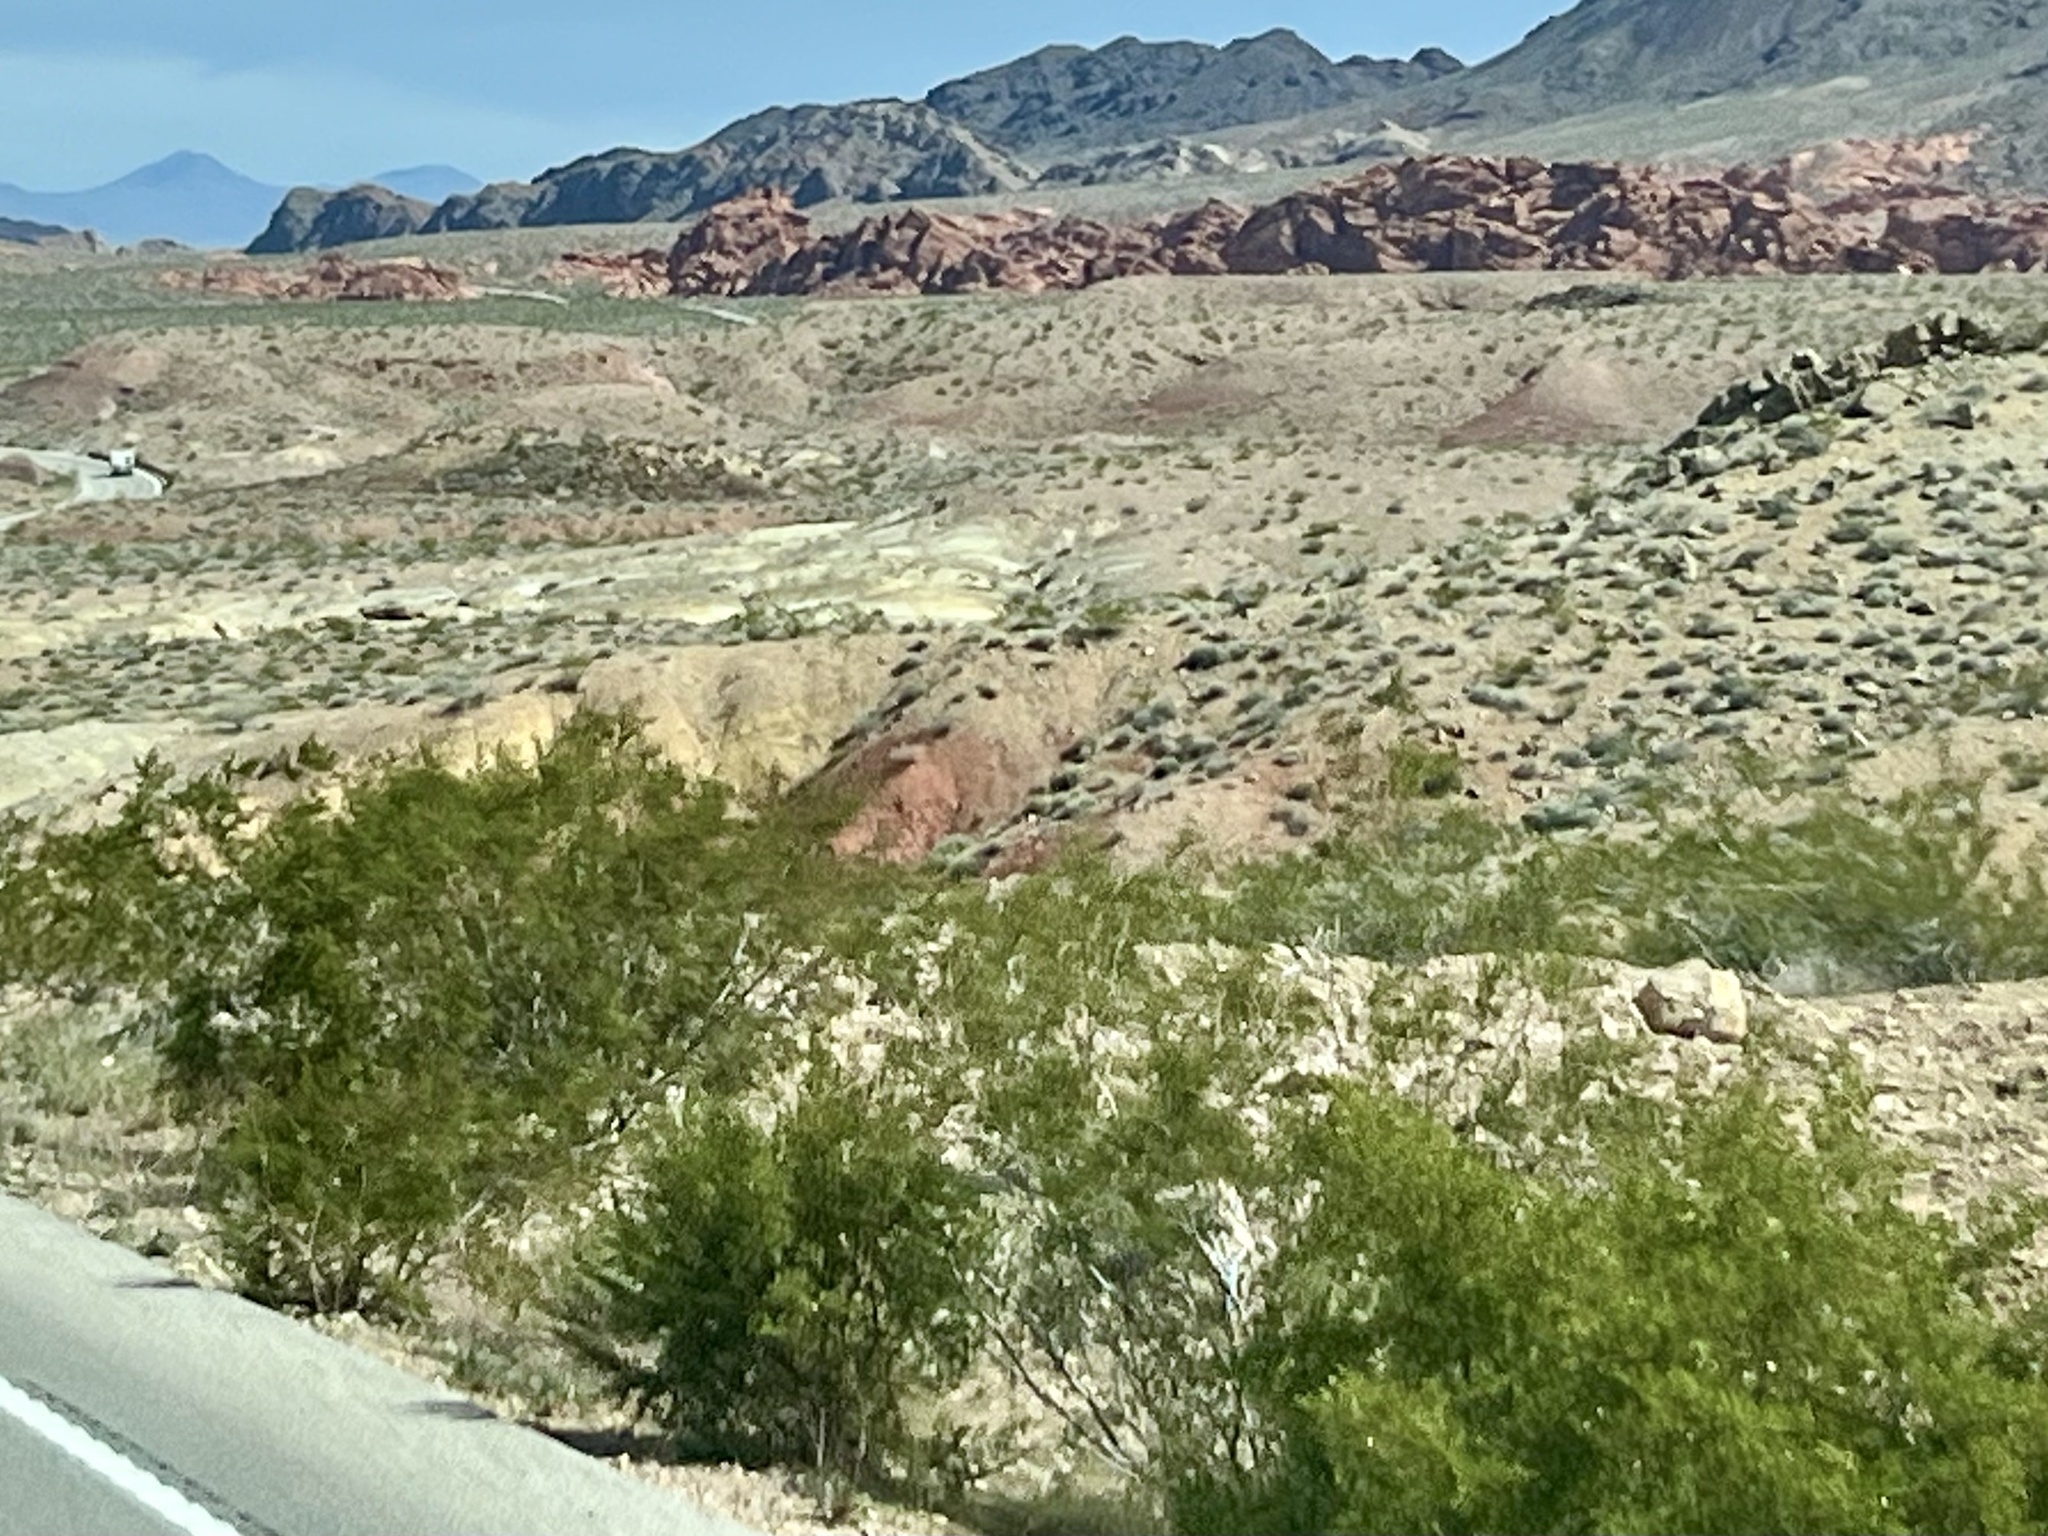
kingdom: Plantae
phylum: Tracheophyta
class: Magnoliopsida
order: Zygophyllales
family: Zygophyllaceae
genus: Larrea
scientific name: Larrea tridentata
